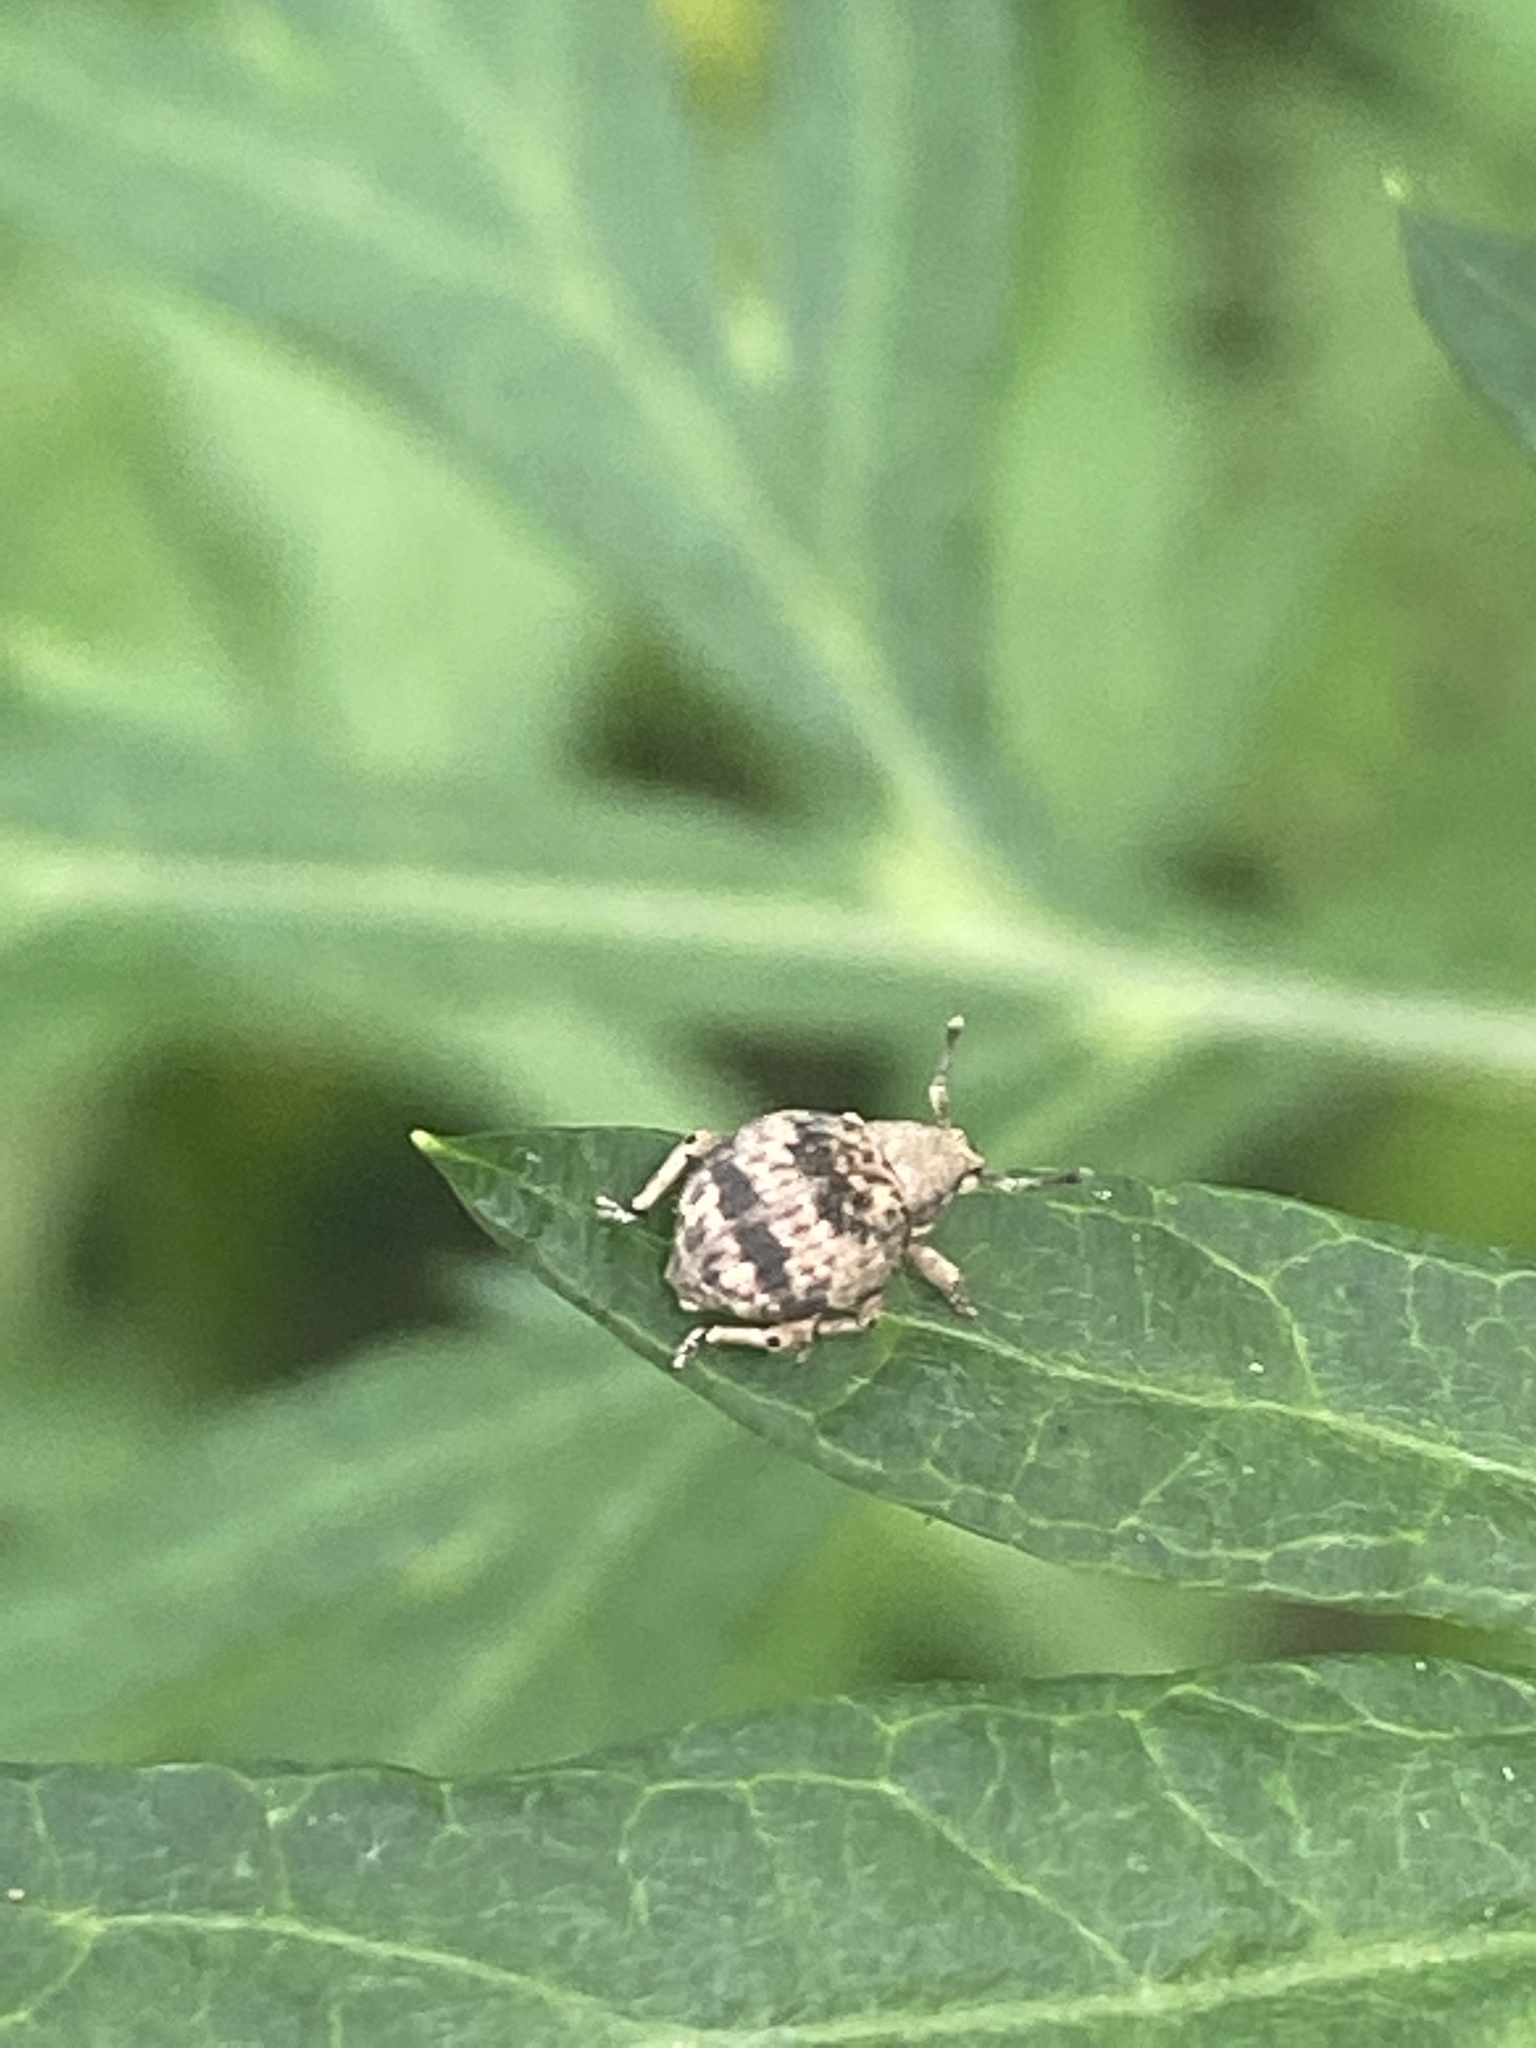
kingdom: Animalia
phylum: Arthropoda
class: Insecta
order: Coleoptera
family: Curculionidae
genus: Pseudocneorhinus
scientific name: Pseudocneorhinus bifasciatus
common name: Two-banded japanese weevil
